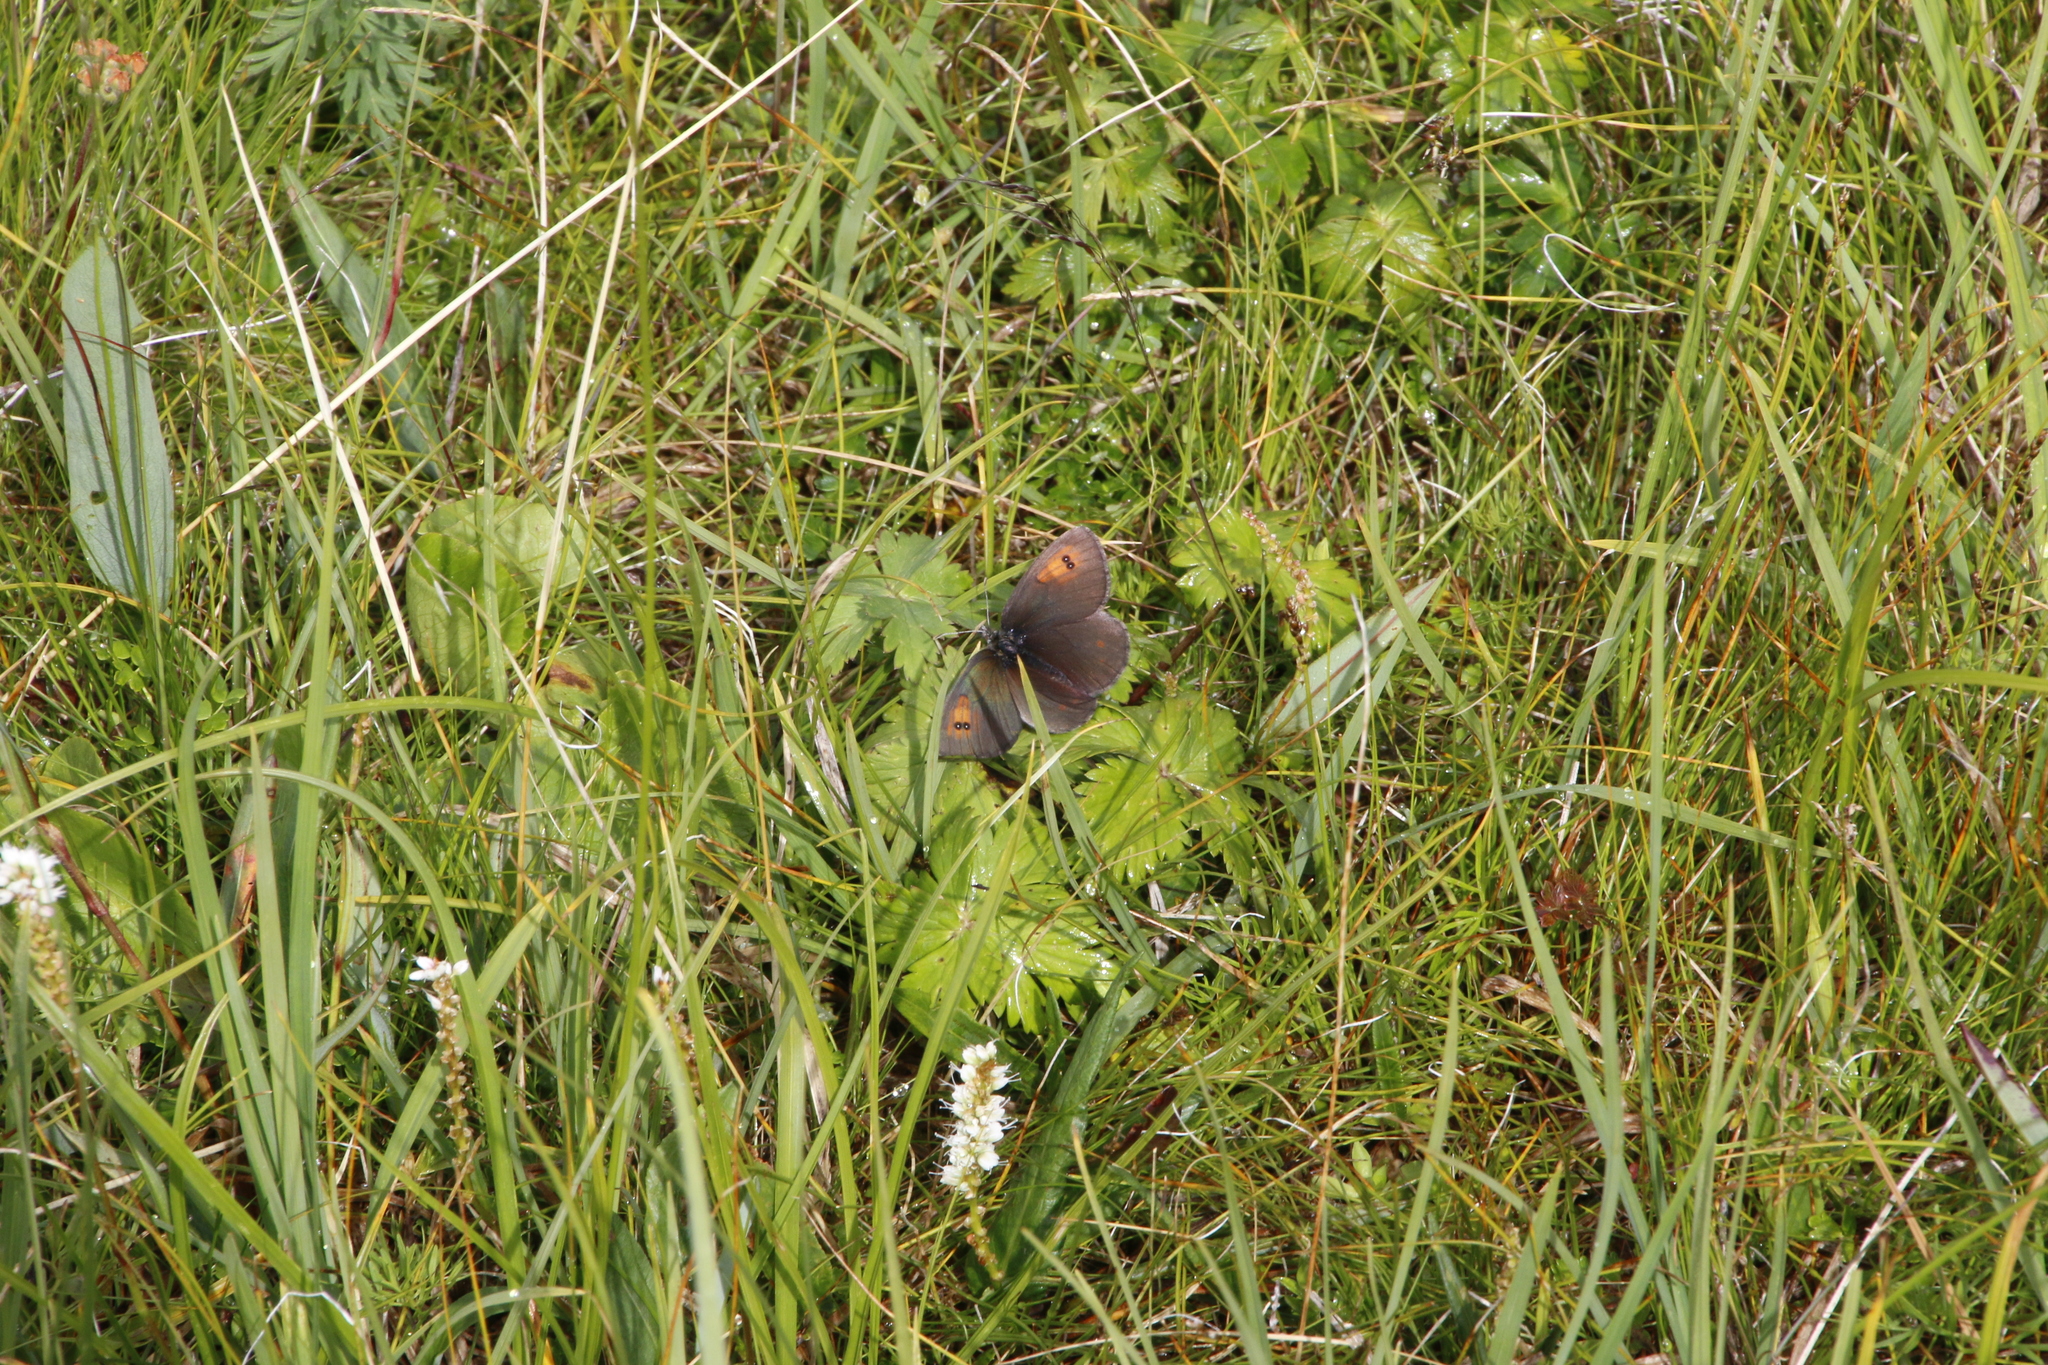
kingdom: Animalia
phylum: Arthropoda
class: Insecta
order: Lepidoptera
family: Nymphalidae
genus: Erebia
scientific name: Erebia tyndarus
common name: Swiss brassy ringlet
